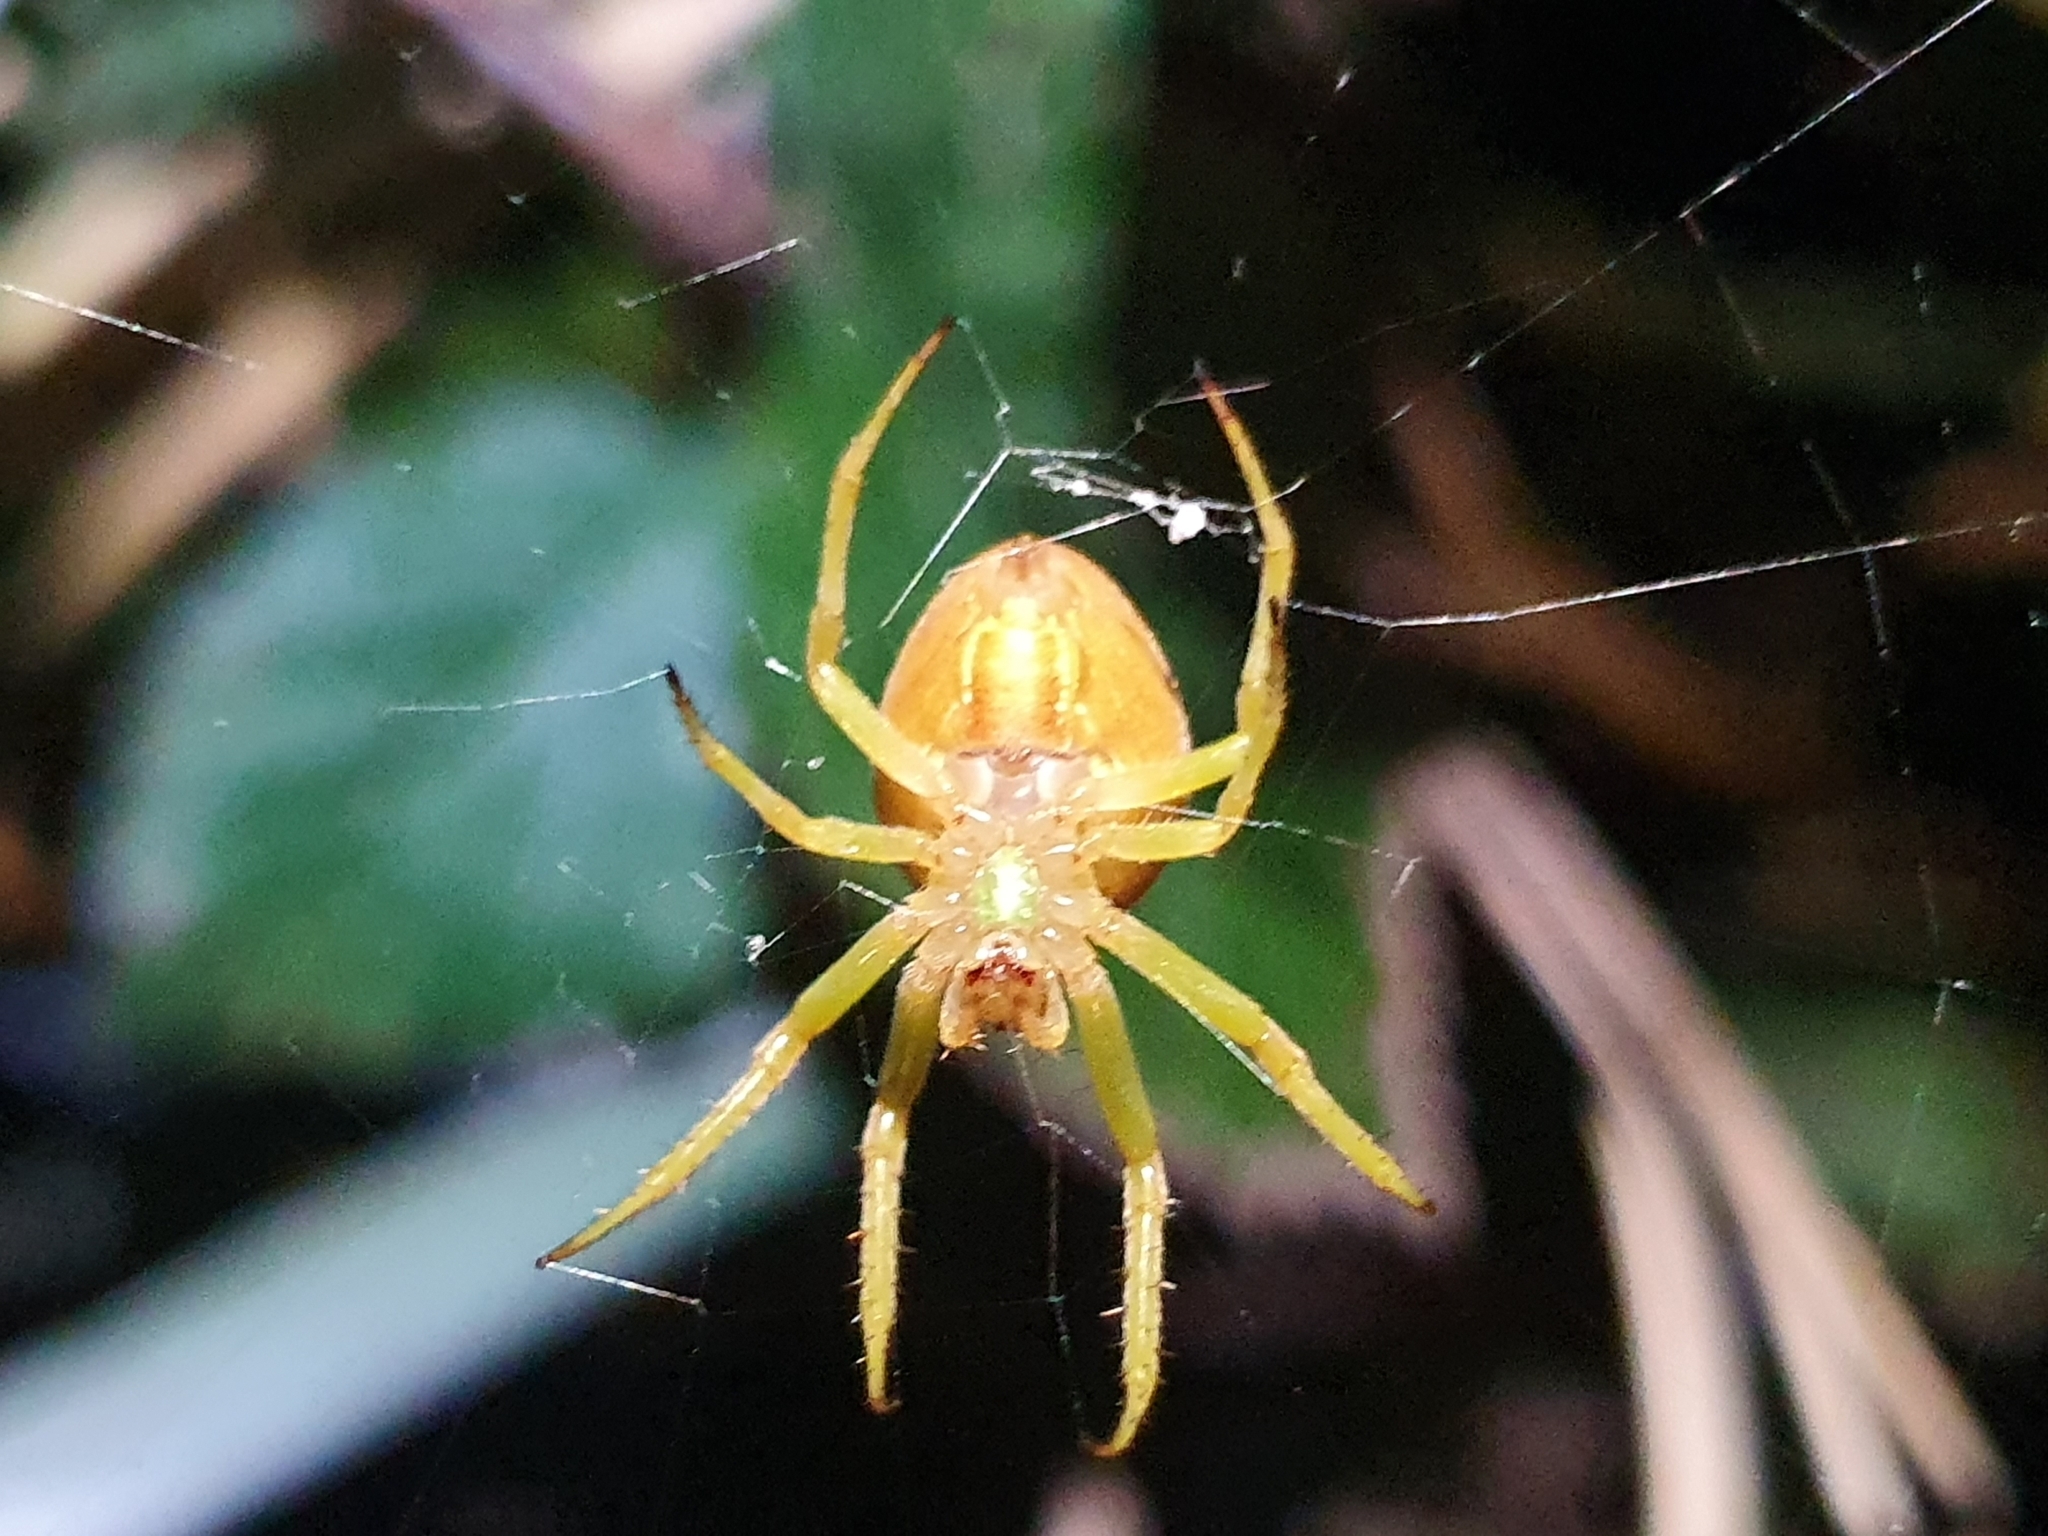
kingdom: Animalia
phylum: Arthropoda
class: Arachnida
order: Araneae
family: Araneidae
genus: Colaranea
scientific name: Colaranea viriditas
